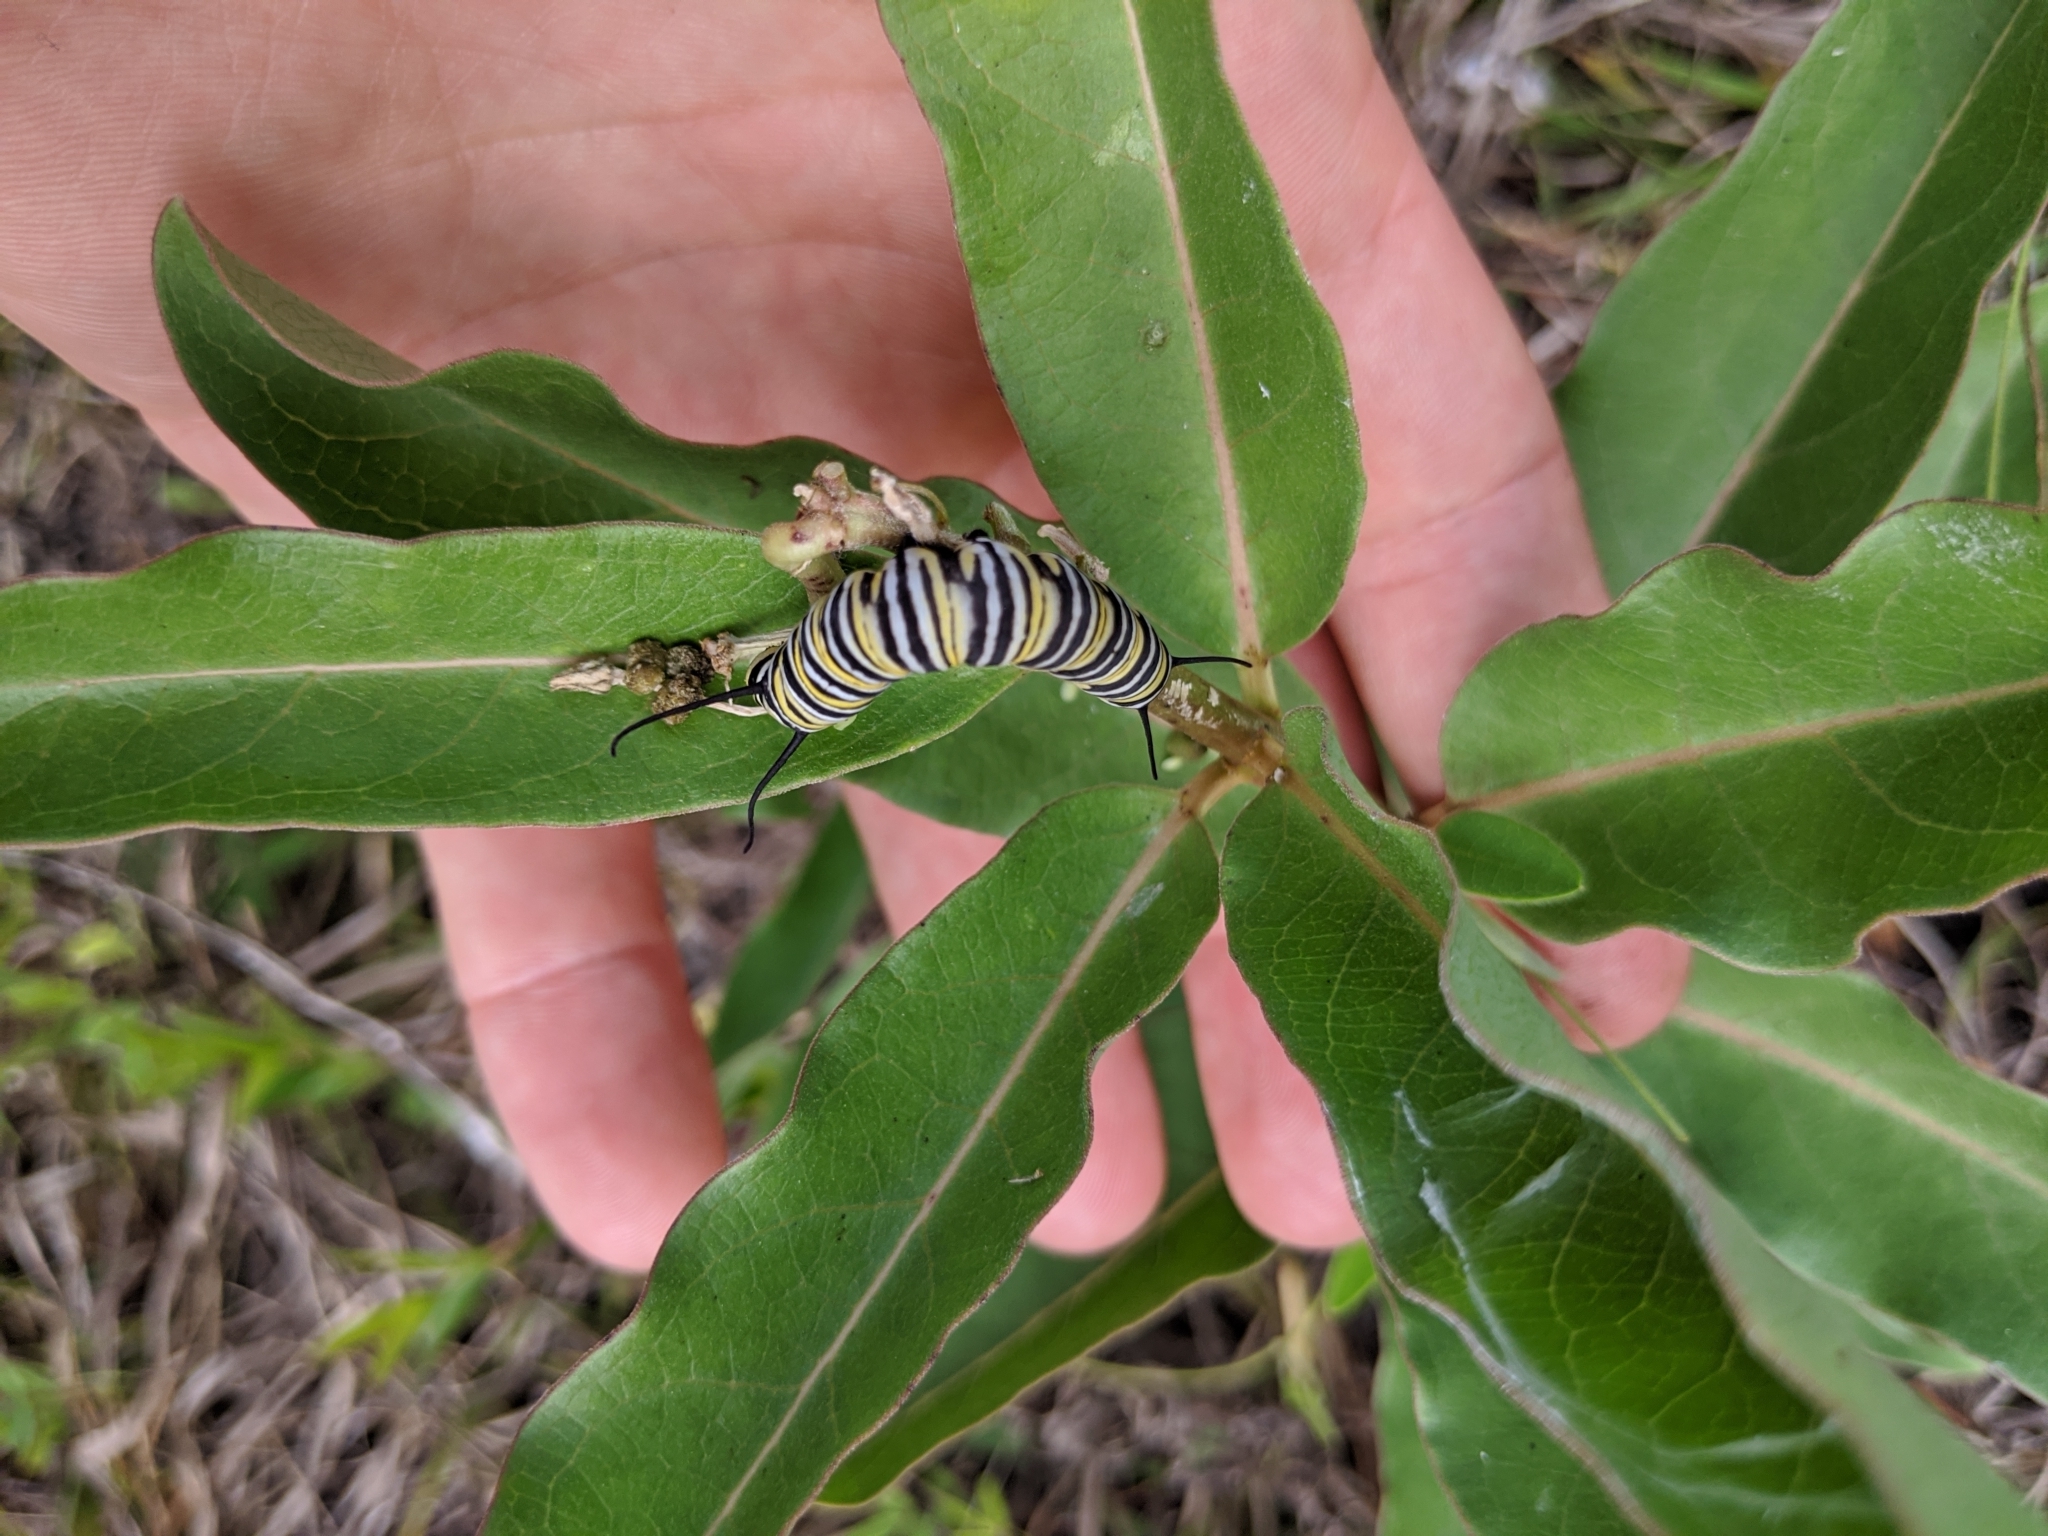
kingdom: Animalia
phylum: Arthropoda
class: Insecta
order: Lepidoptera
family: Nymphalidae
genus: Danaus
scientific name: Danaus plexippus
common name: Monarch
